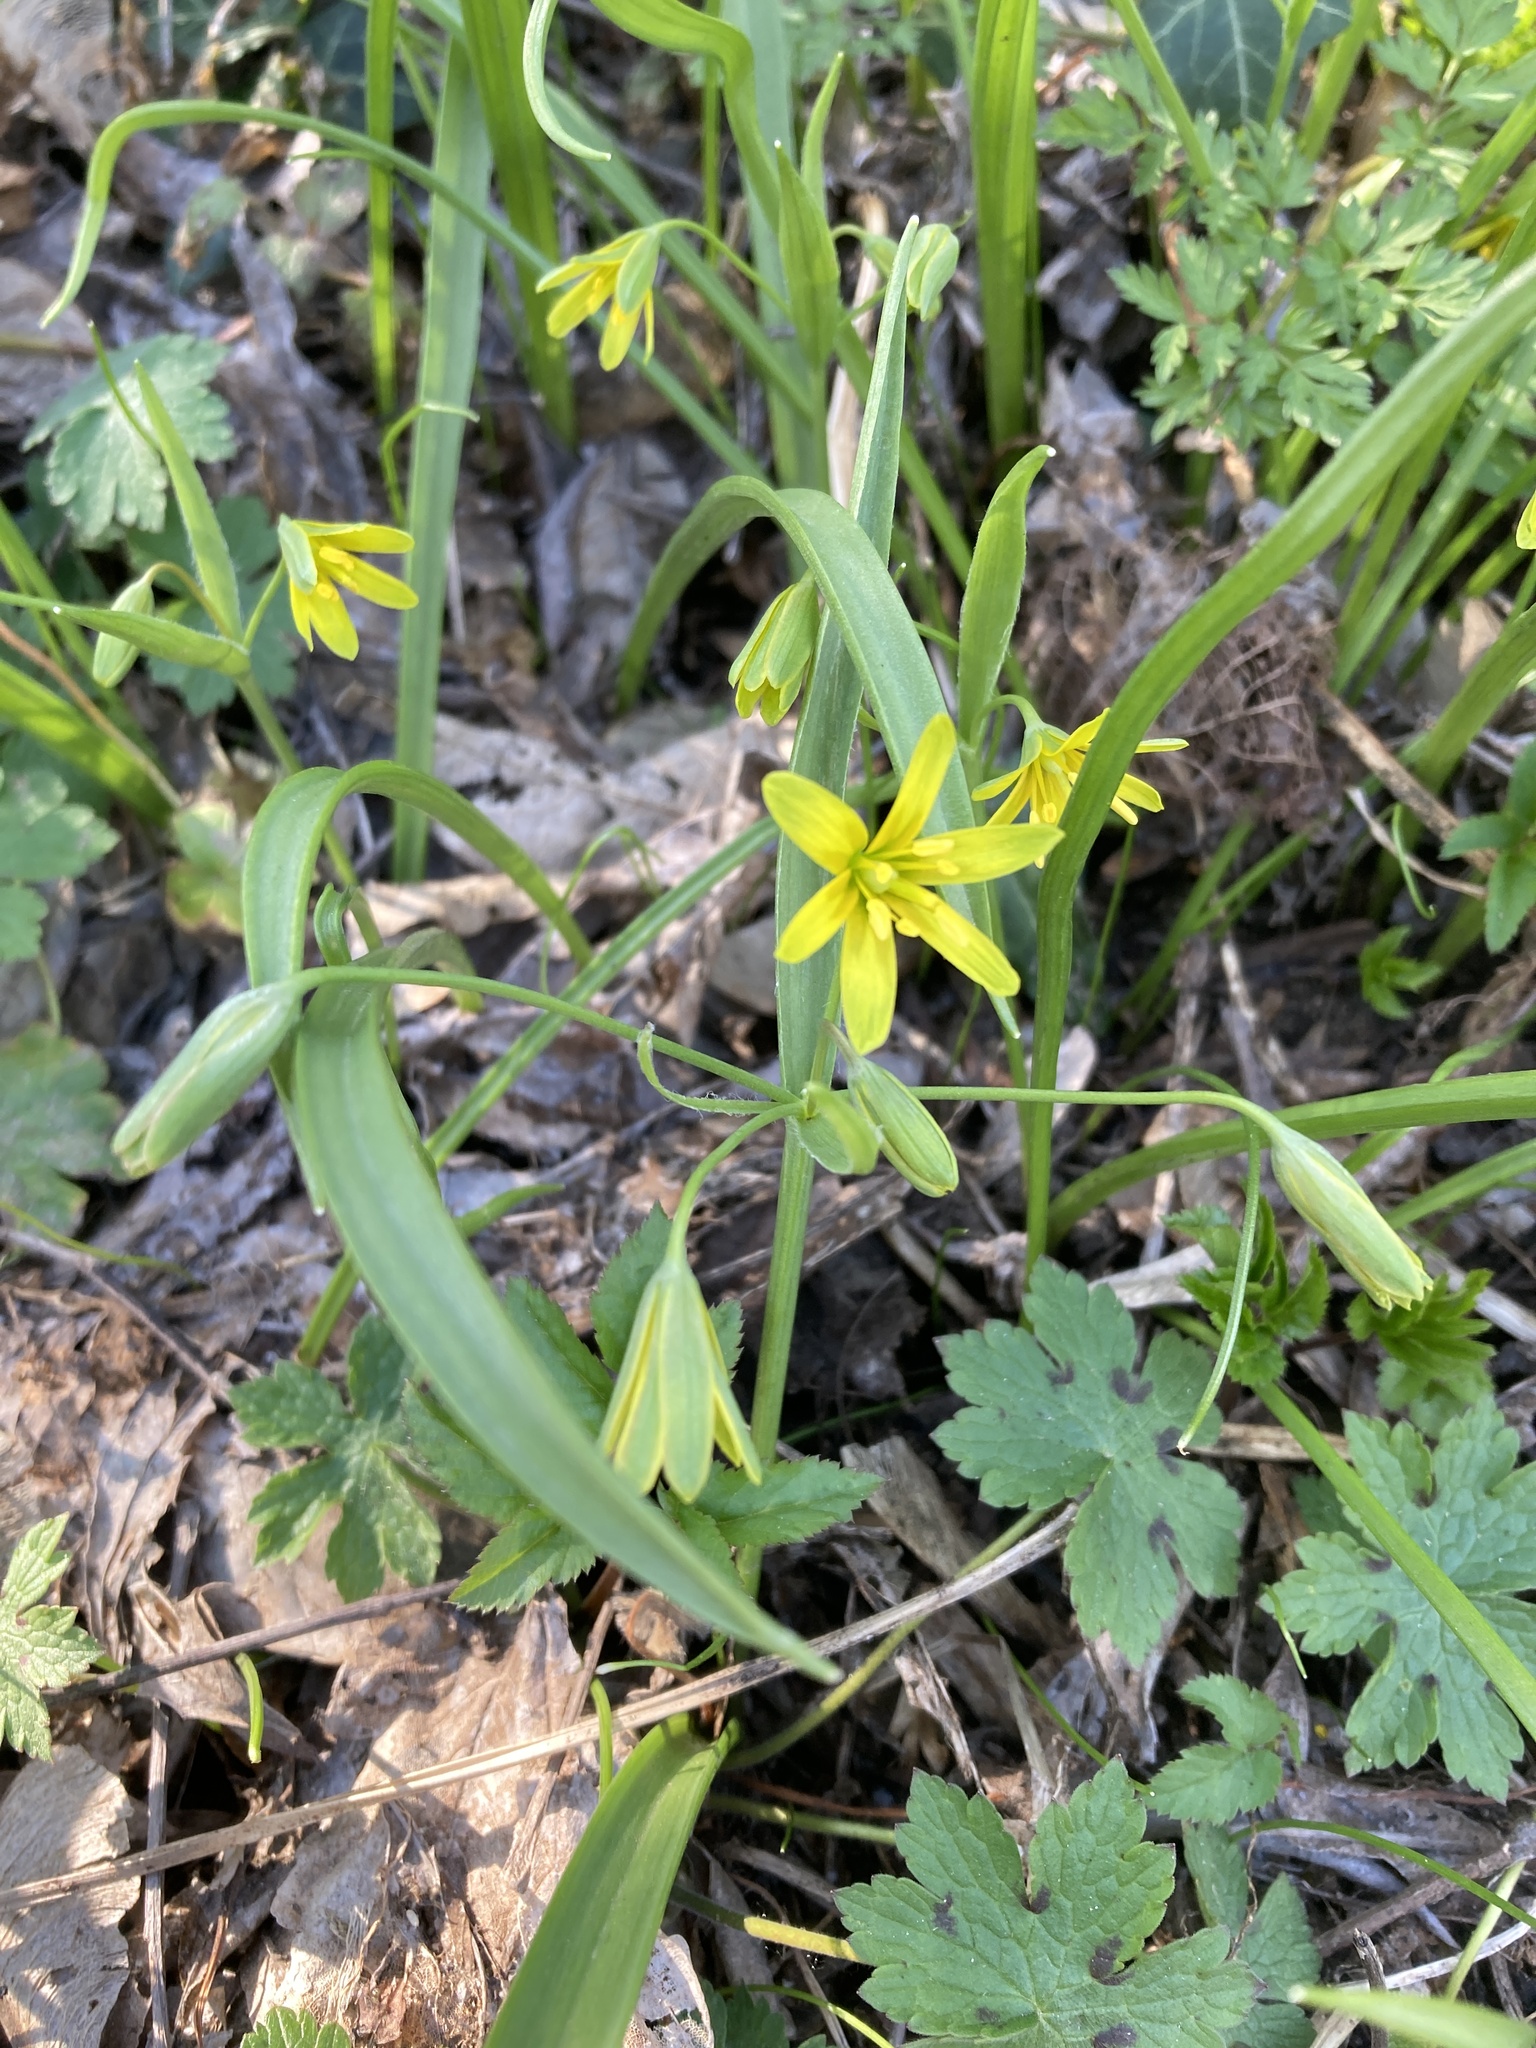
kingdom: Plantae
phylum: Tracheophyta
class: Liliopsida
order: Liliales
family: Liliaceae
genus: Gagea
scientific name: Gagea lutea
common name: Yellow star-of-bethlehem
